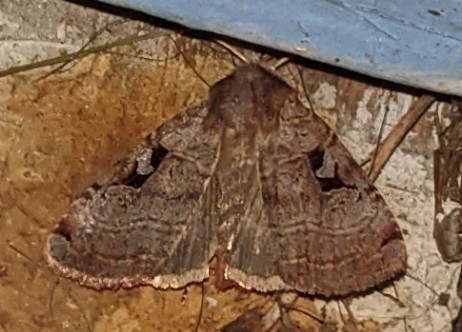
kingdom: Animalia
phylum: Arthropoda
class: Insecta
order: Lepidoptera
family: Noctuidae
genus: Xestia
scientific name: Xestia normaniana
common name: Norman's dart moth
